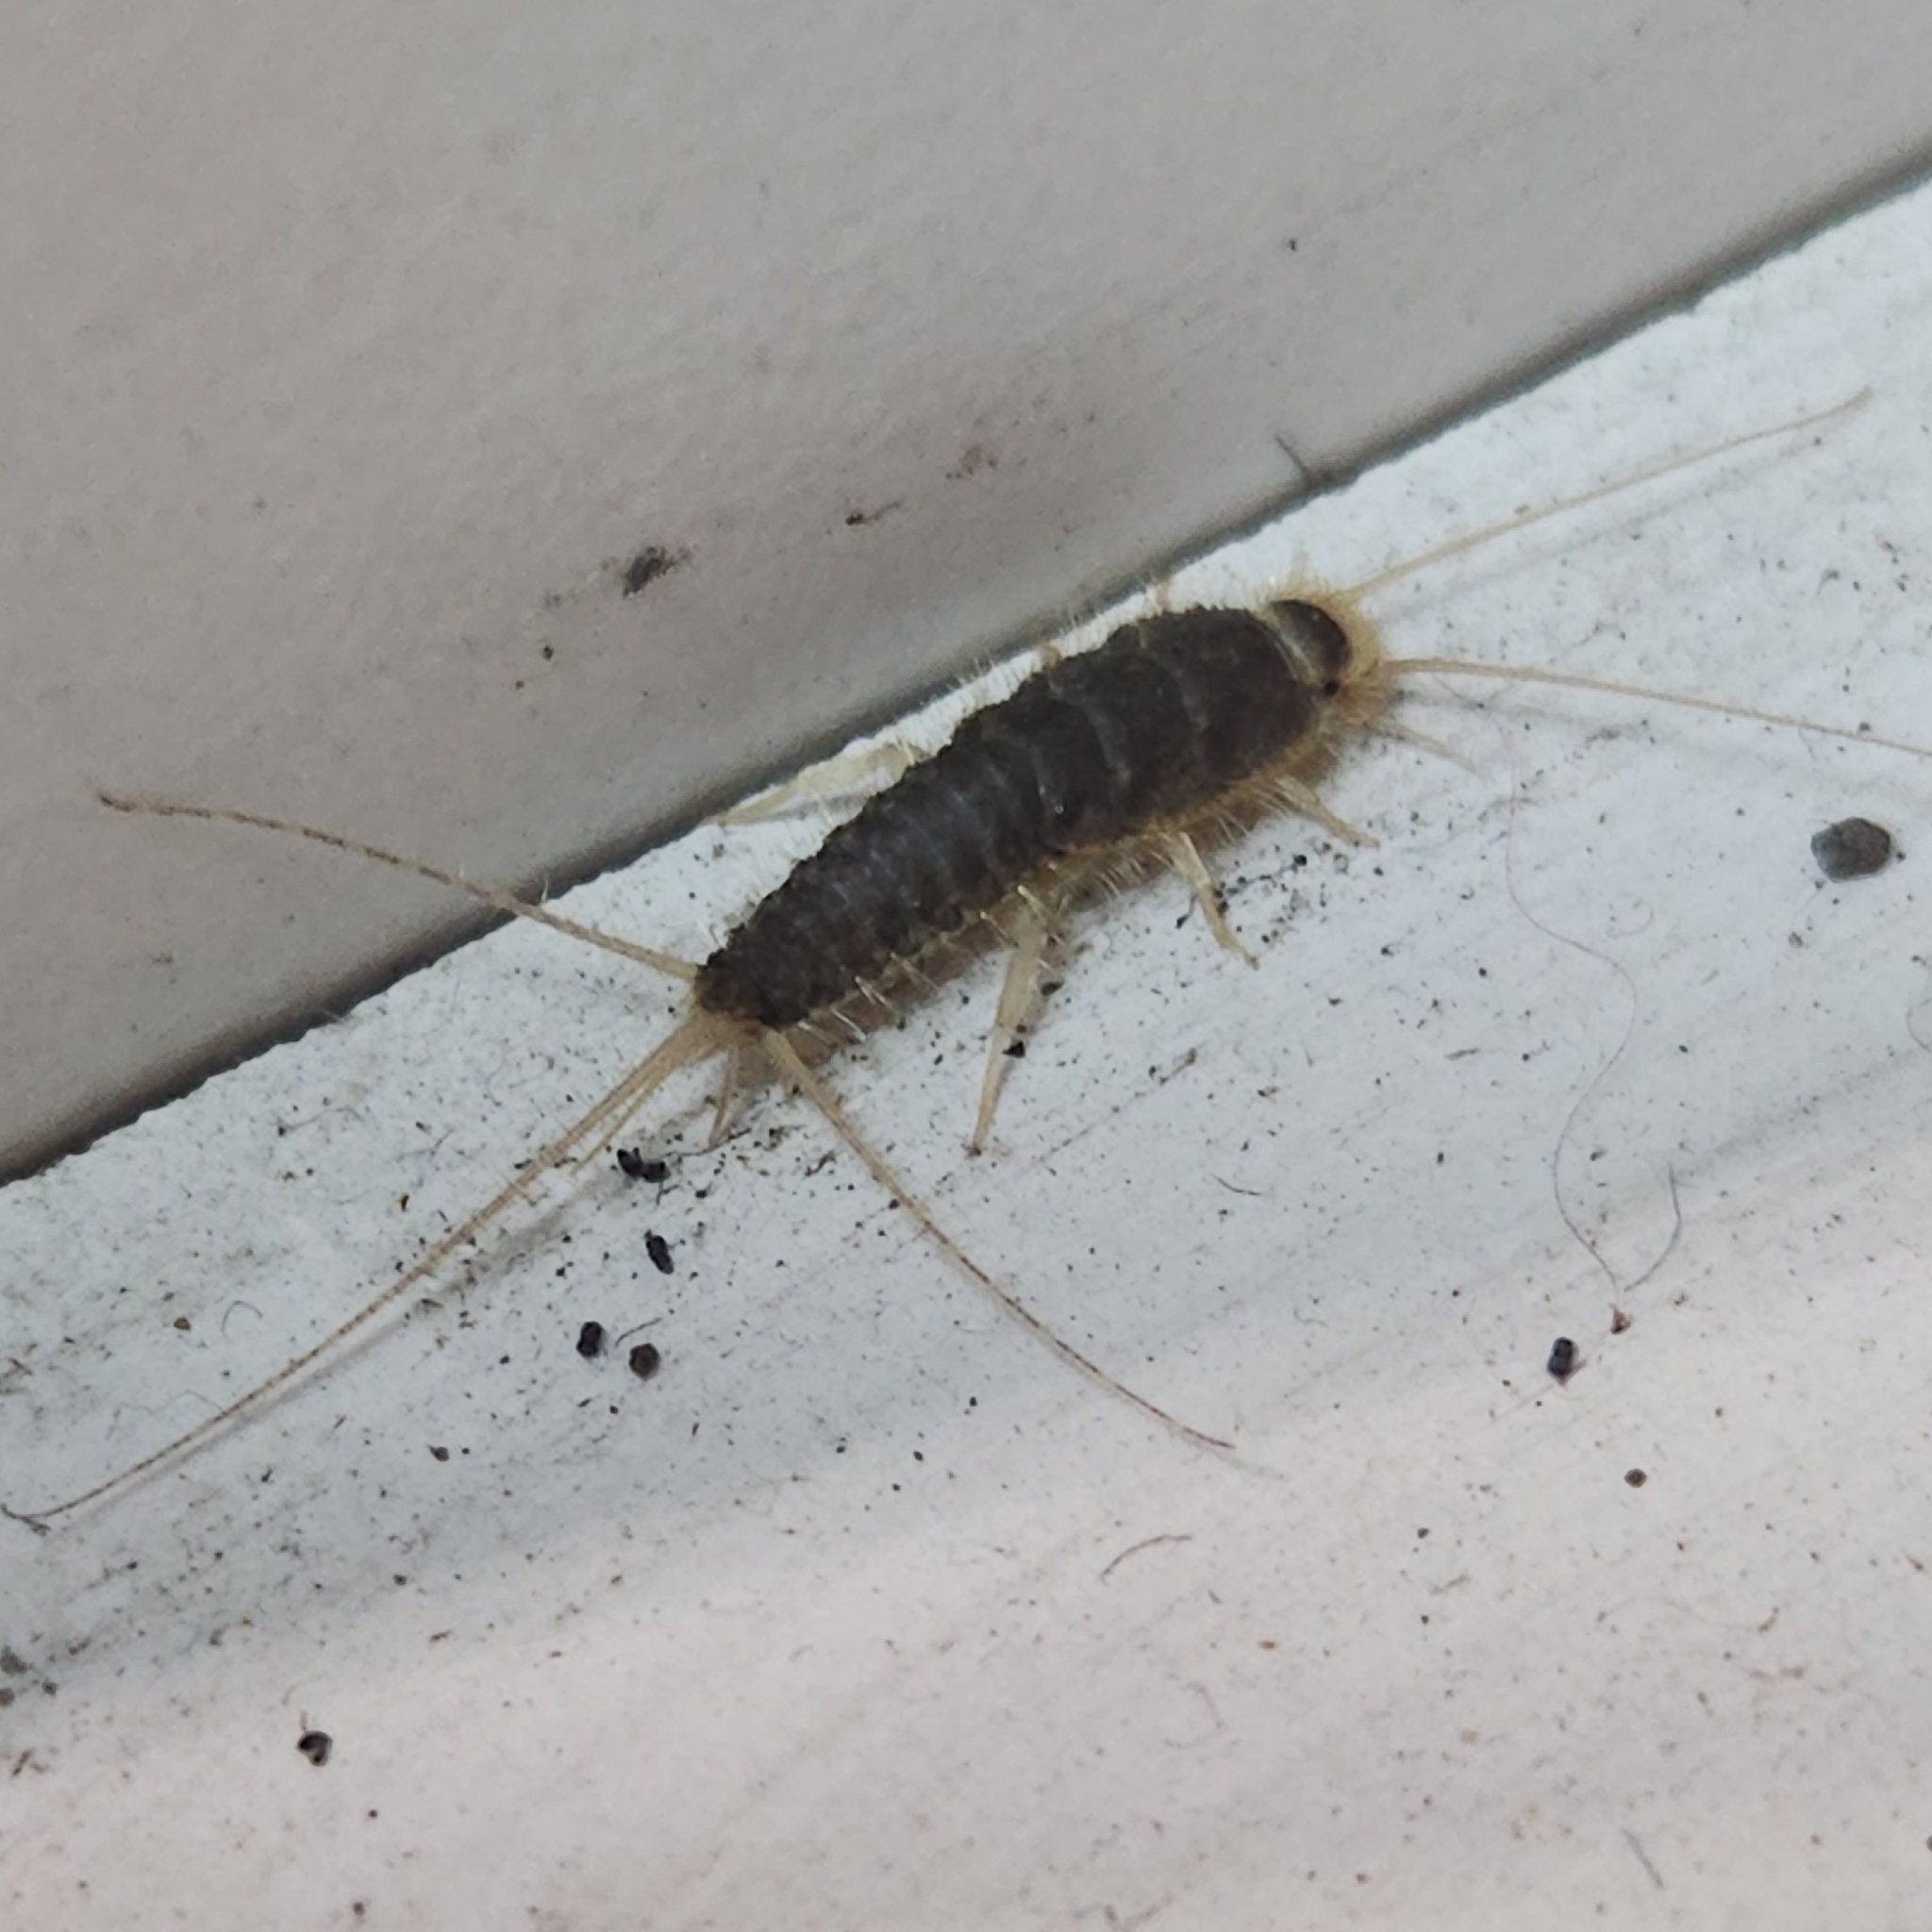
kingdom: Animalia
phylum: Arthropoda
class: Insecta
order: Zygentoma
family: Lepismatidae
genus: Ctenolepisma
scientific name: Ctenolepisma longicaudatum
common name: Silverfish
